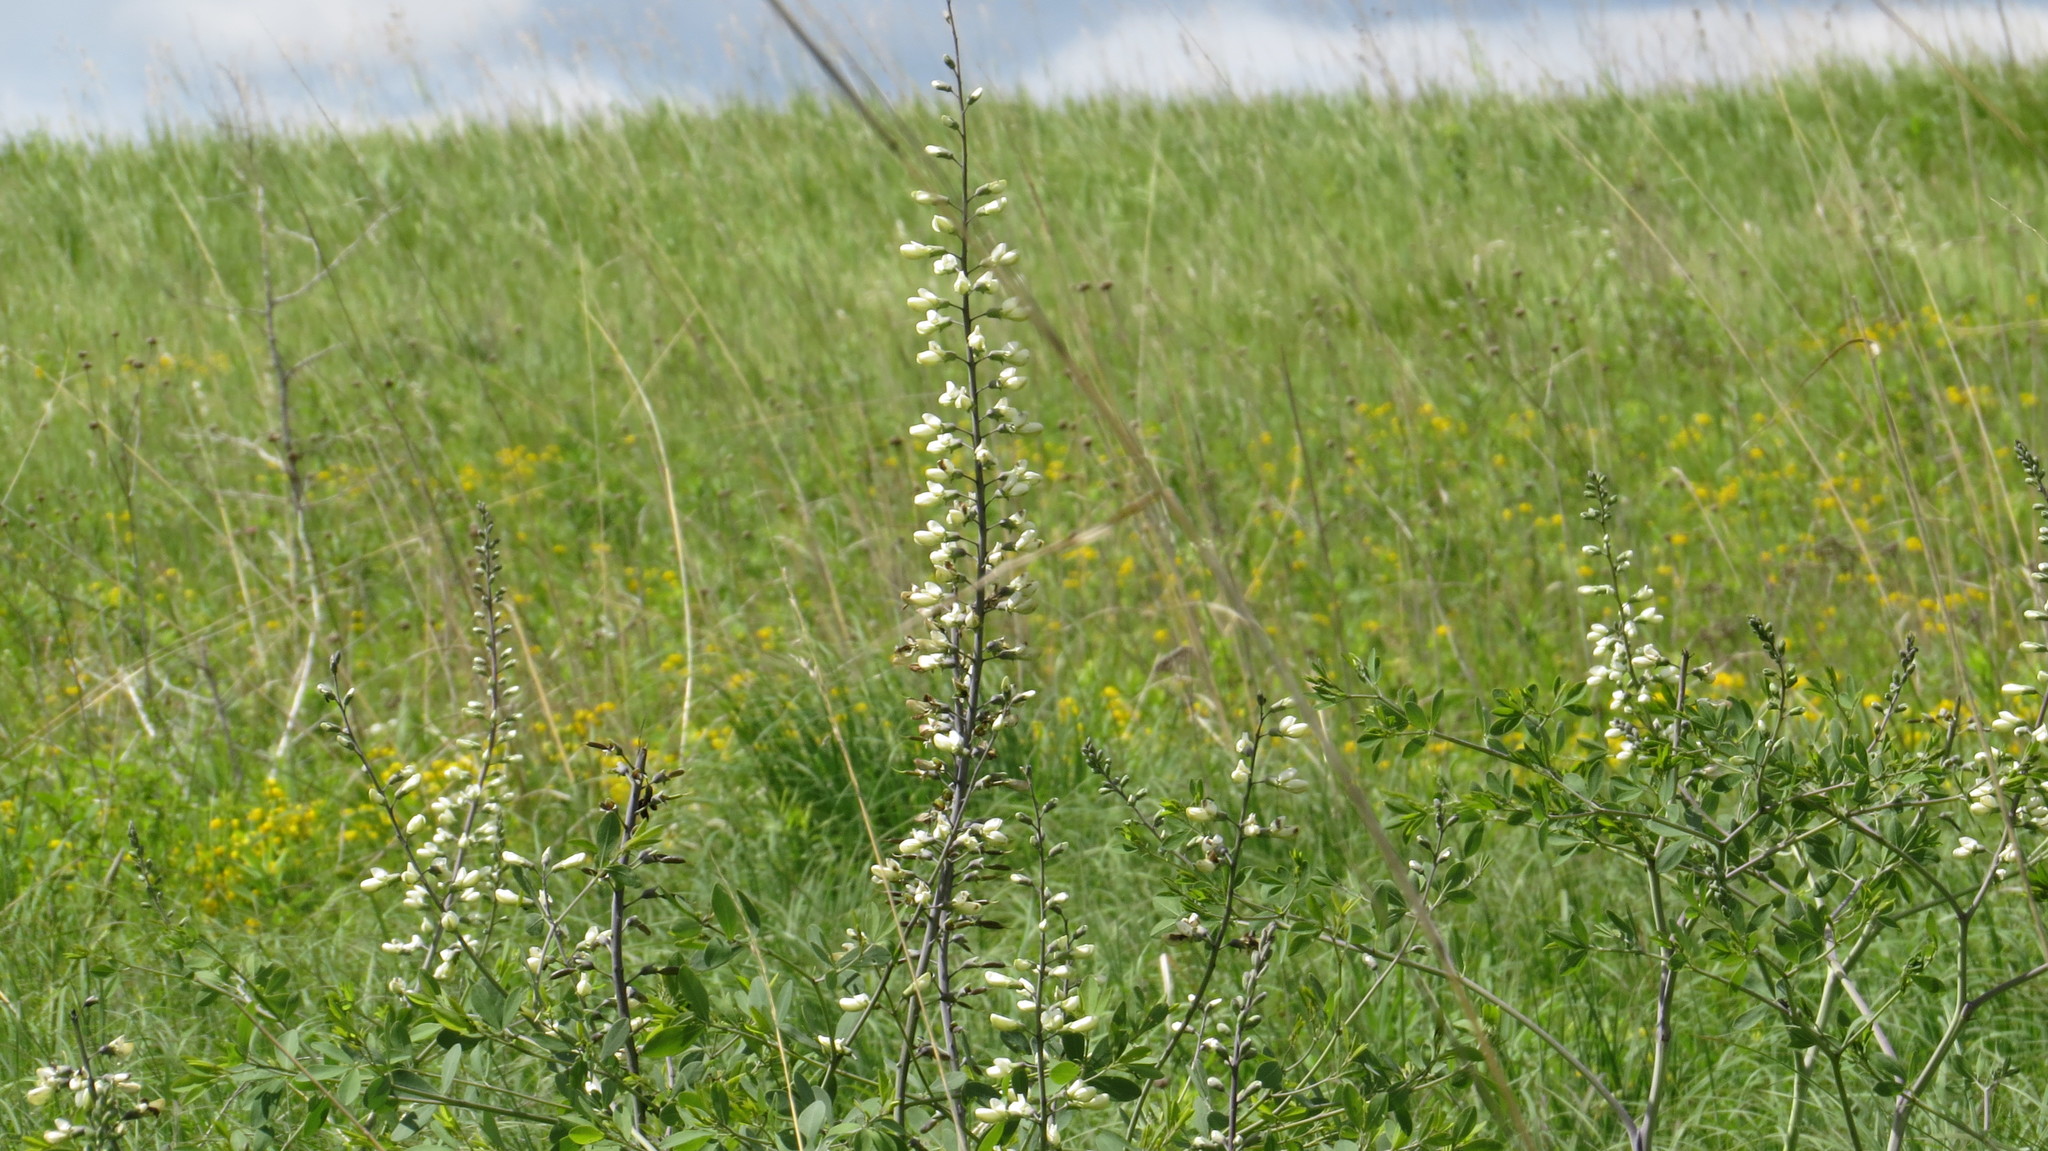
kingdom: Plantae
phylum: Tracheophyta
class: Magnoliopsida
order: Fabales
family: Fabaceae
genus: Baptisia
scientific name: Baptisia alba
